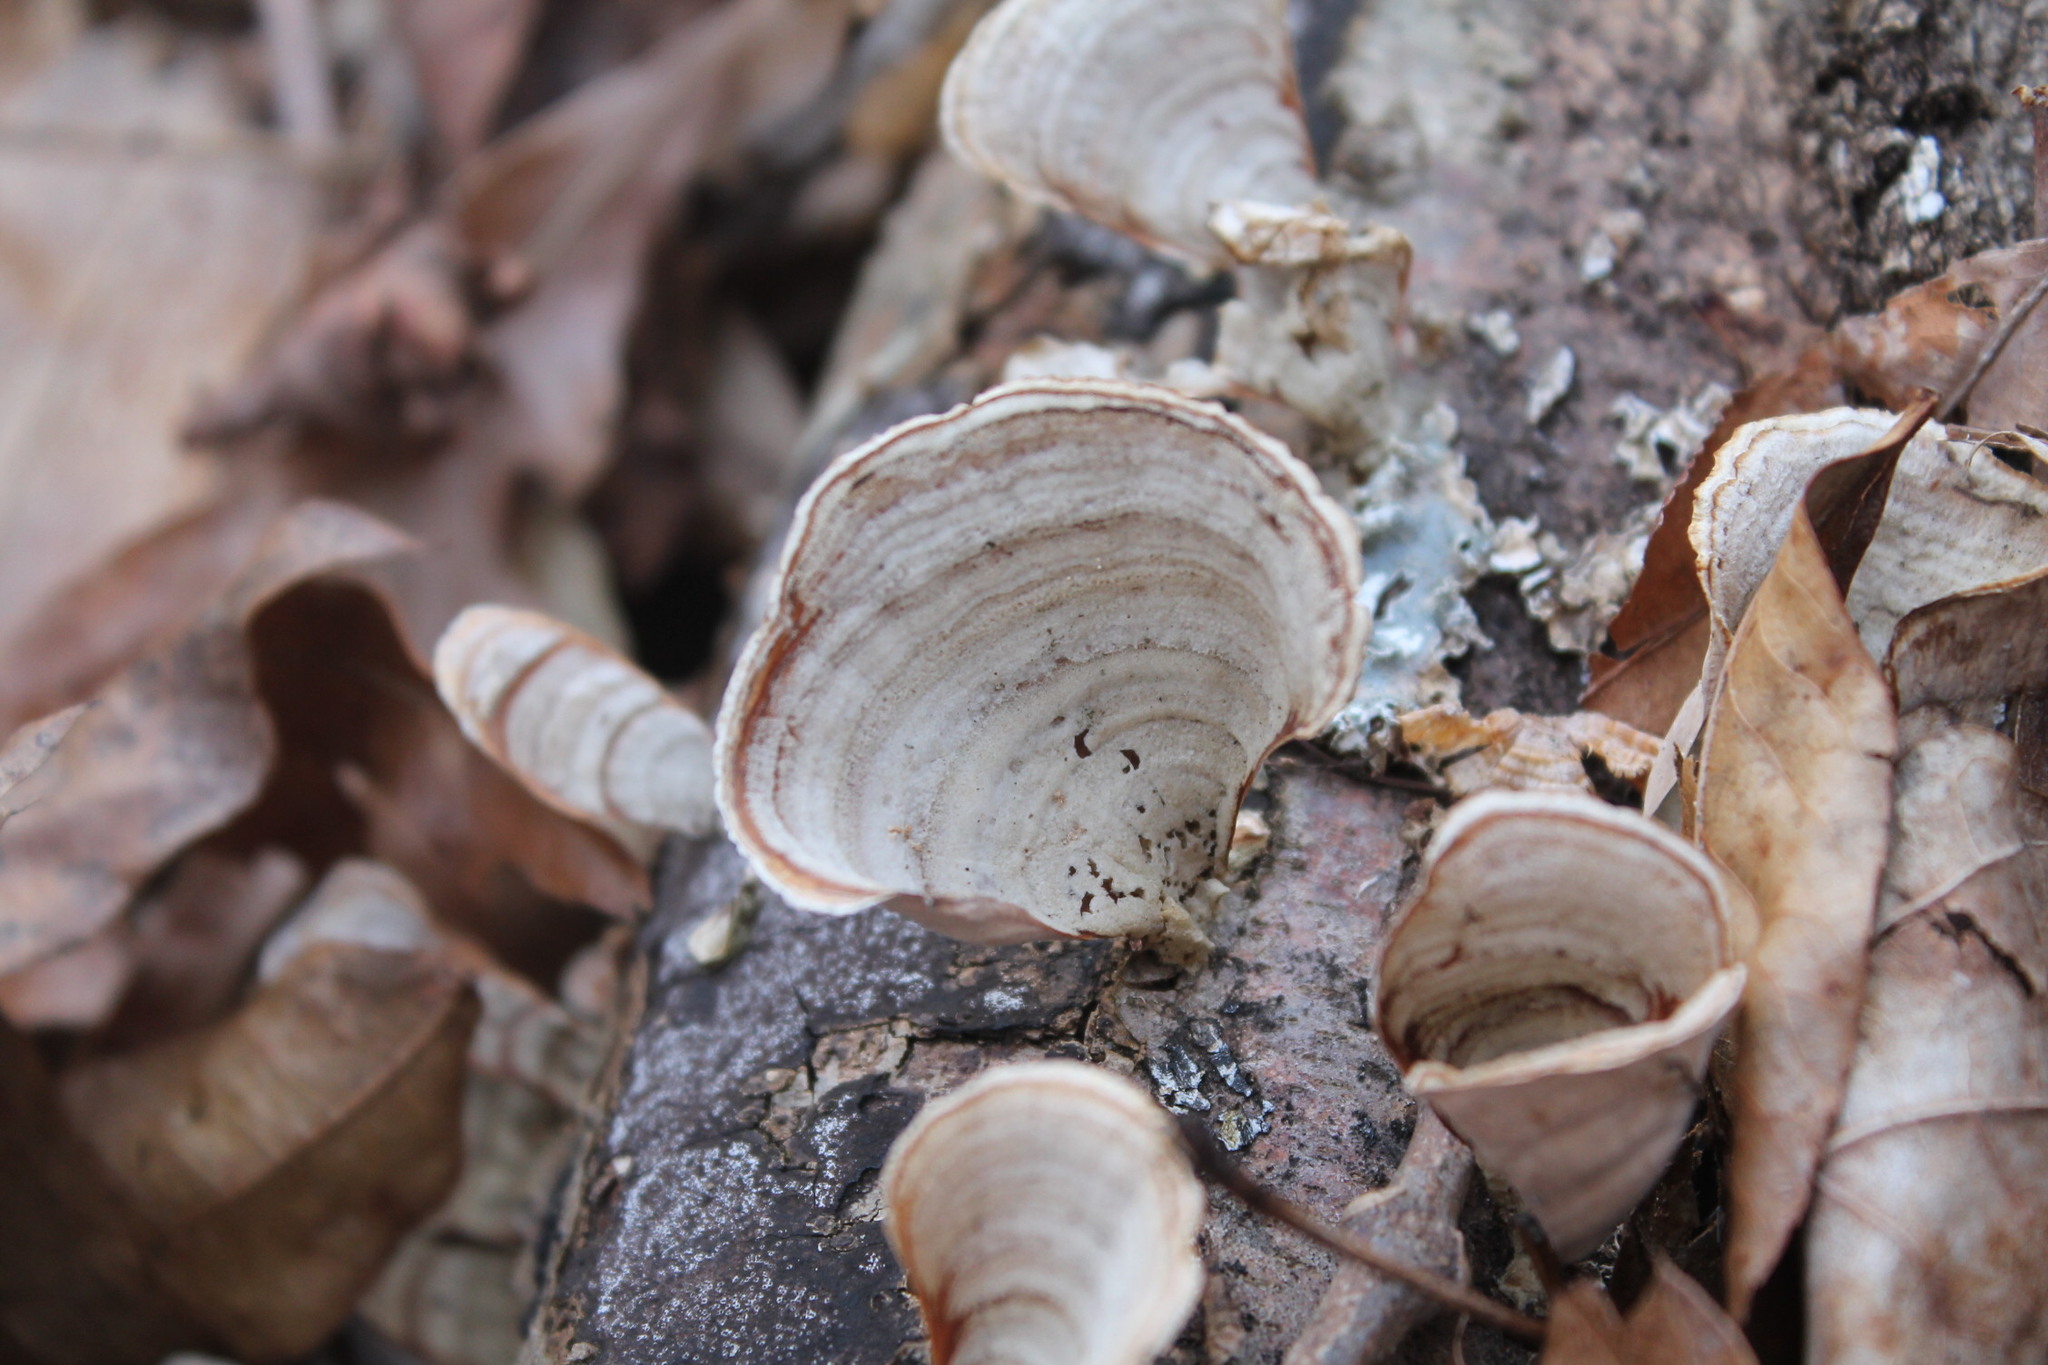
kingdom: Fungi
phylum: Basidiomycota
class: Agaricomycetes
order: Russulales
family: Stereaceae
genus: Stereum
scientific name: Stereum lobatum
